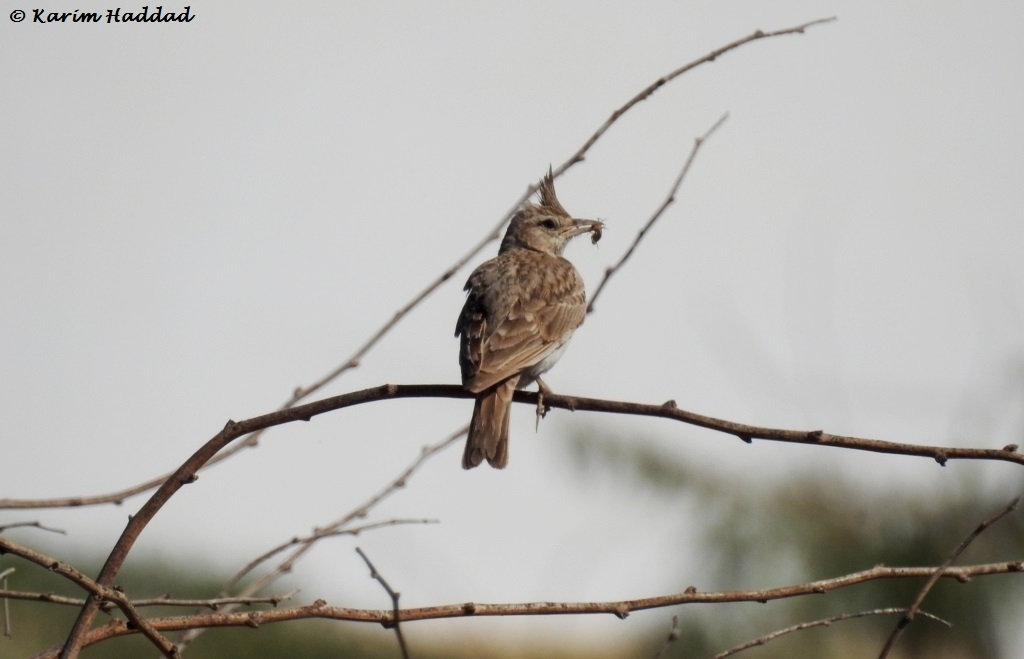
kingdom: Animalia
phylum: Chordata
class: Aves
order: Passeriformes
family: Alaudidae
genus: Galerida
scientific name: Galerida cristata
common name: Crested lark
